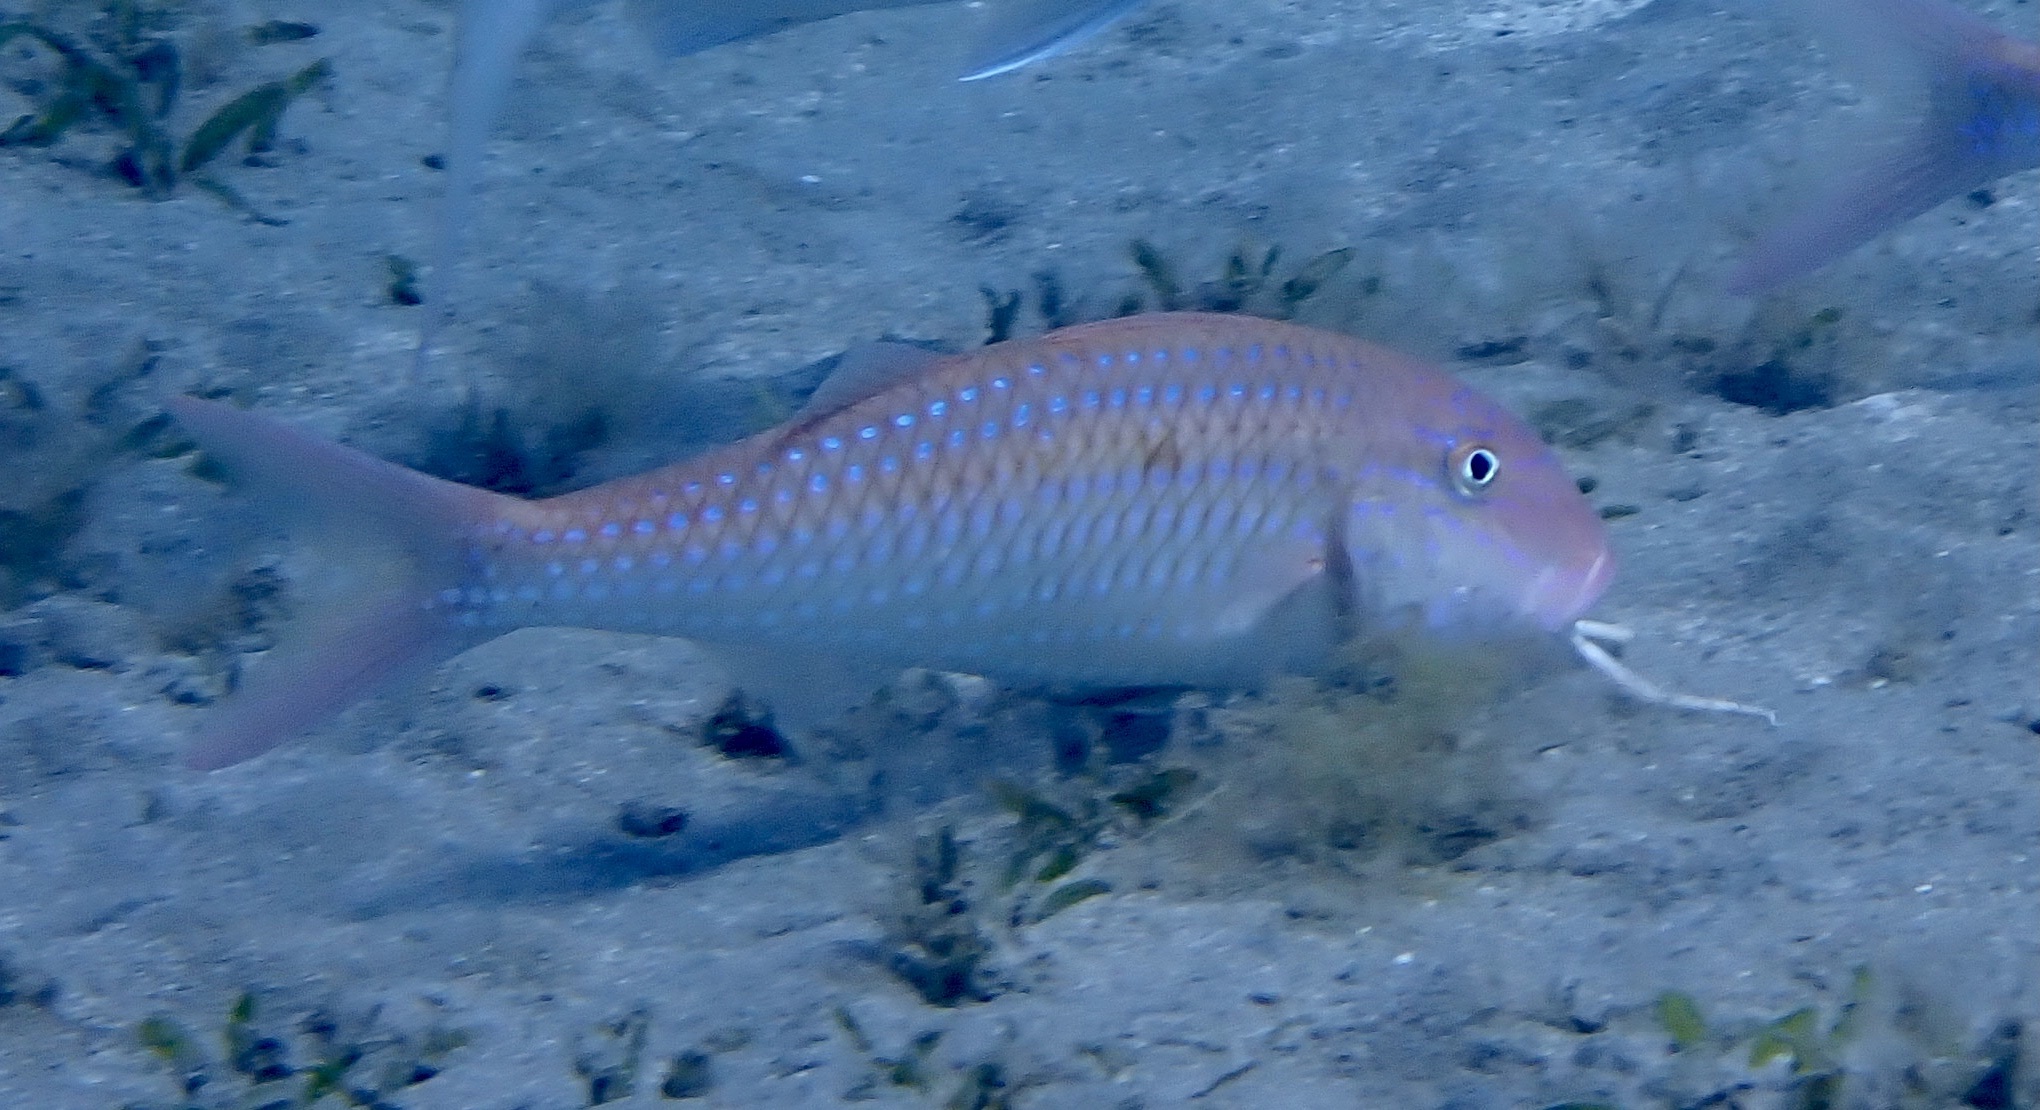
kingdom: Animalia
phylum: Chordata
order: Perciformes
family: Mullidae
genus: Parupeneus
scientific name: Parupeneus heptacanthus
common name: Cinnabar goatfish
